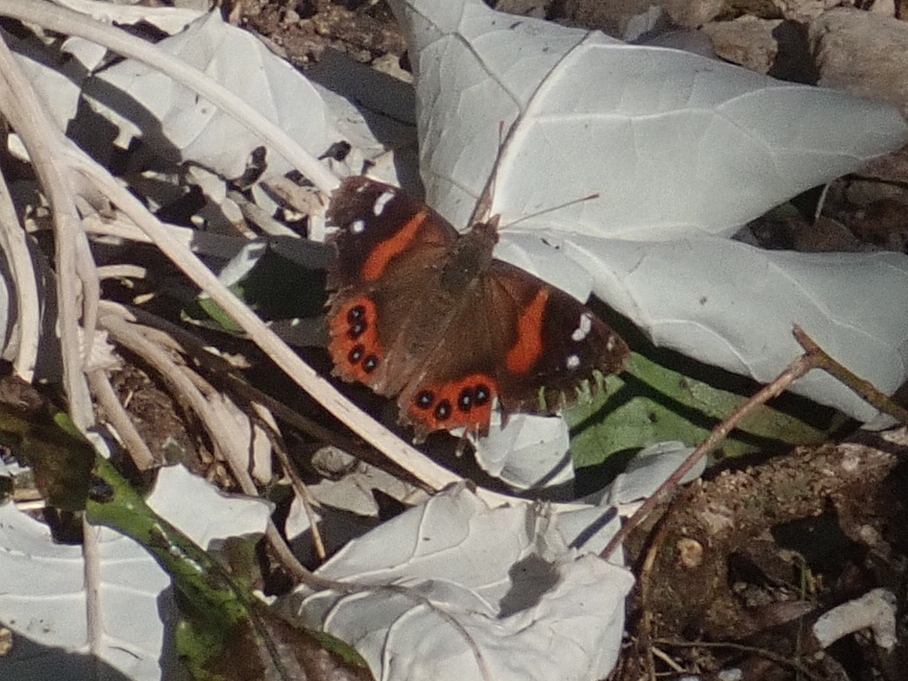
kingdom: Animalia
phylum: Arthropoda
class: Insecta
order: Lepidoptera
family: Nymphalidae
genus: Vanessa
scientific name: Vanessa gonerilla
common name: New zealand red admiral
